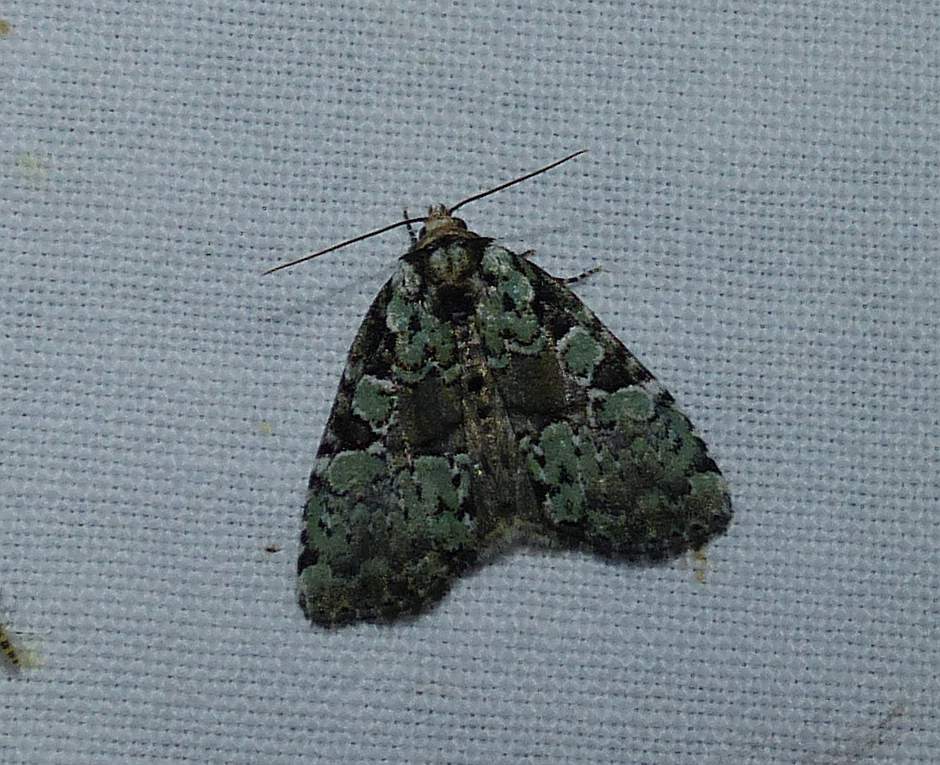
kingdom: Animalia
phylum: Arthropoda
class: Insecta
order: Lepidoptera
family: Noctuidae
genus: Leuconycta
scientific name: Leuconycta lepidula
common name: Marbled-green leuconycta moth
